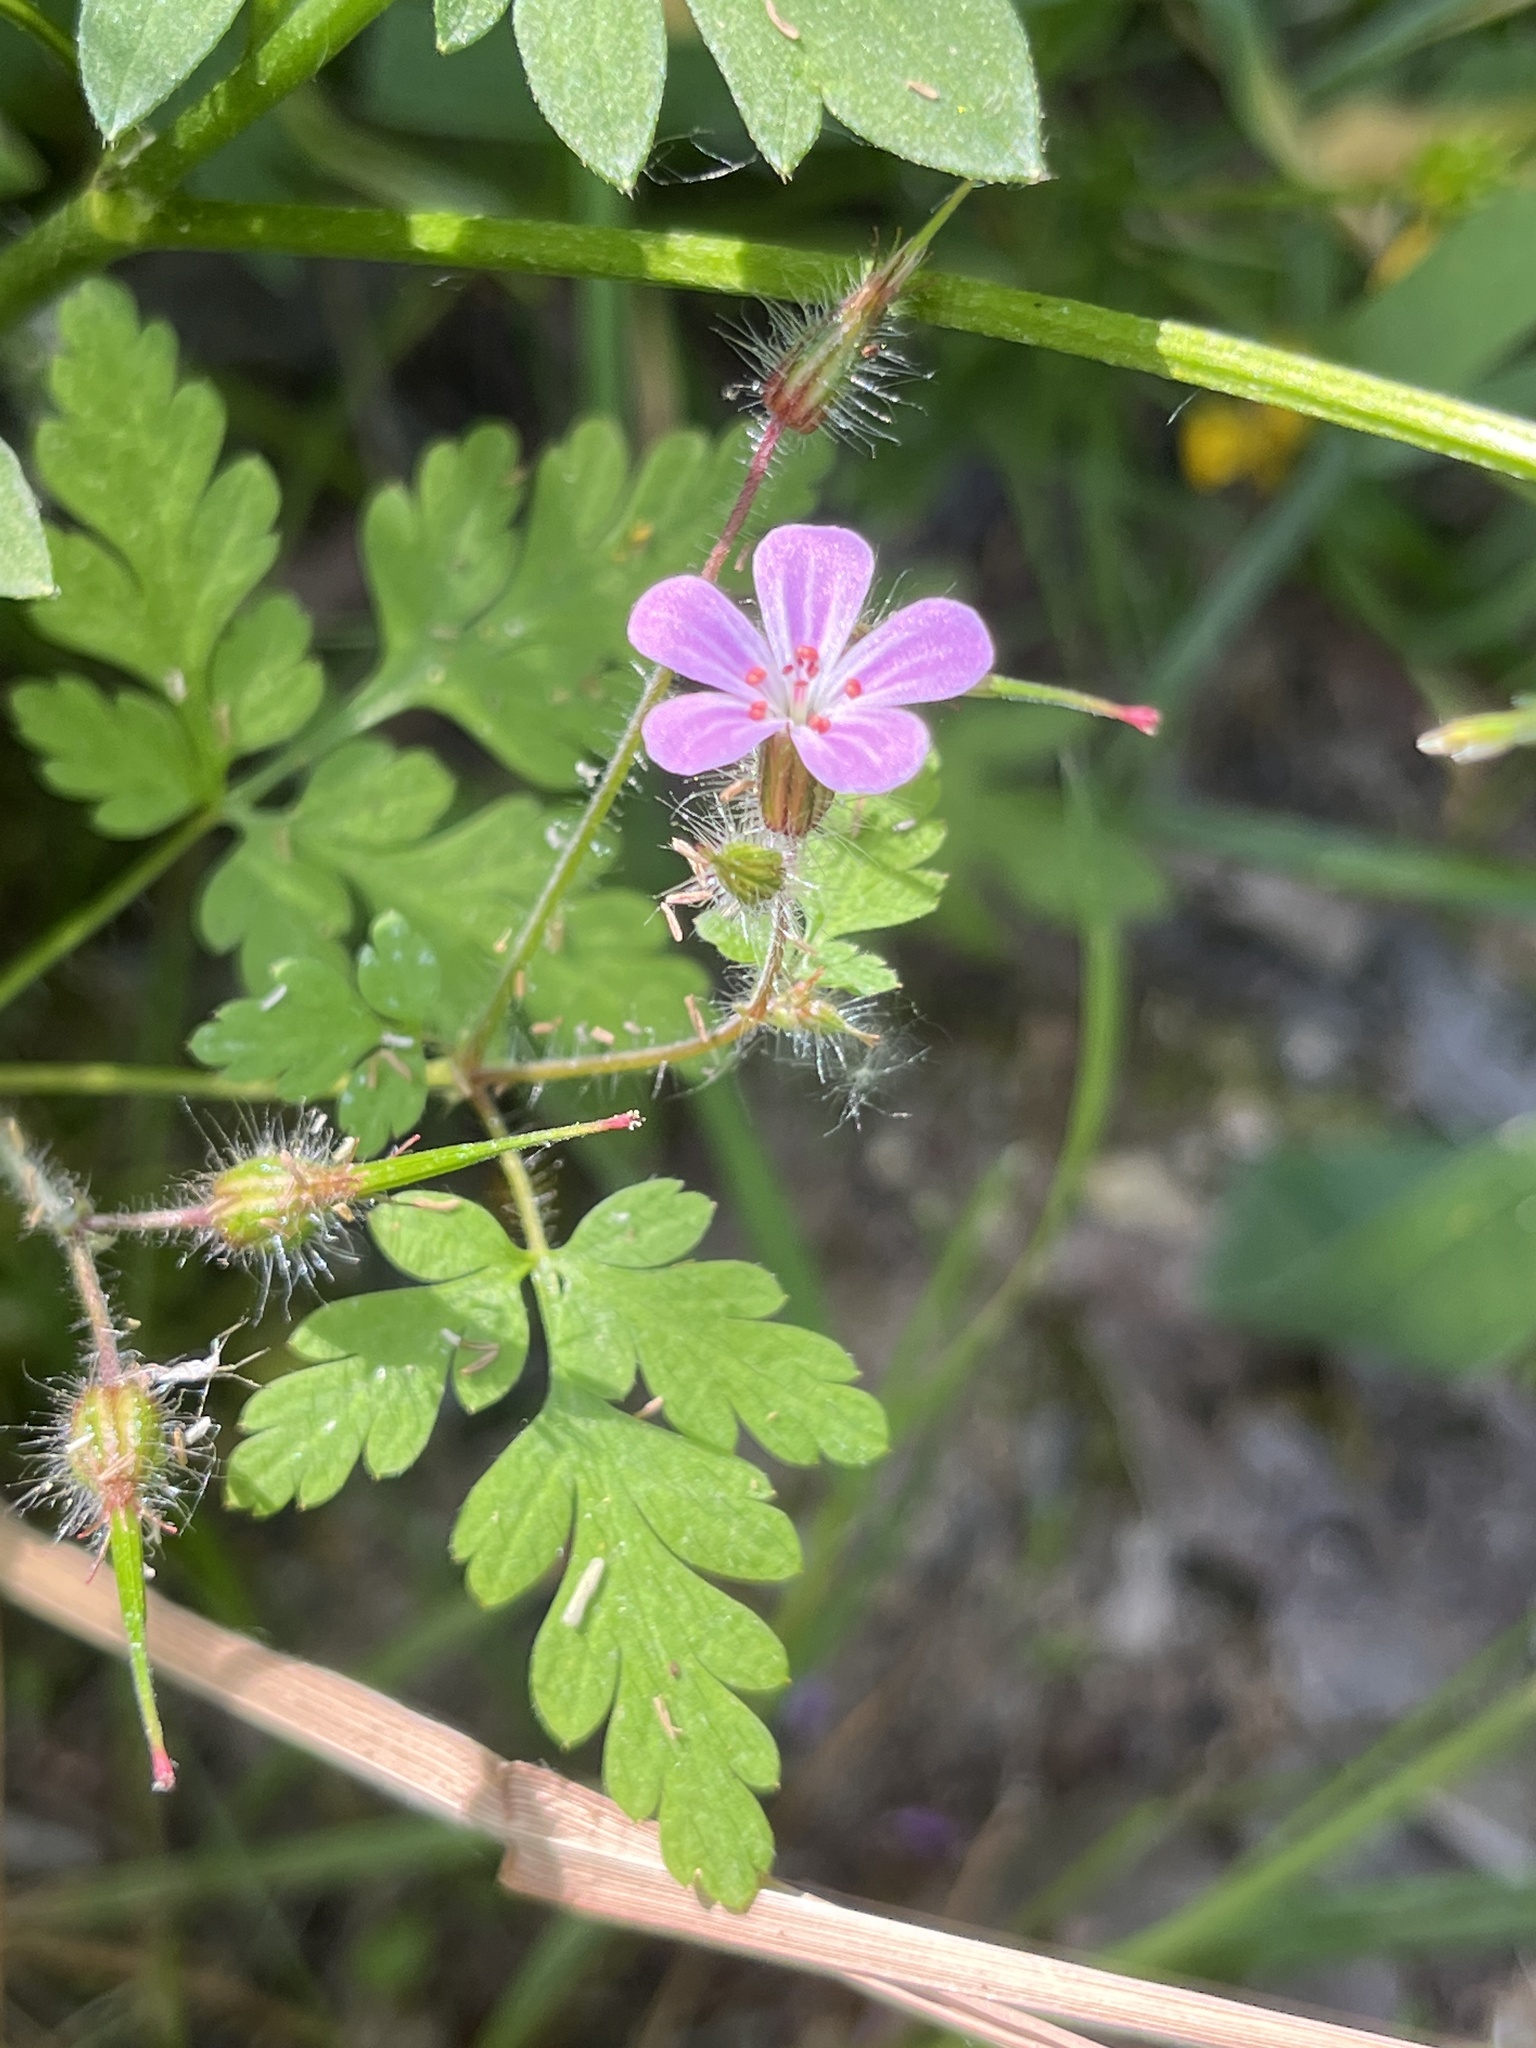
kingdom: Plantae
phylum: Tracheophyta
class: Magnoliopsida
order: Geraniales
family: Geraniaceae
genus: Geranium
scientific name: Geranium robertianum
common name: Herb-robert
